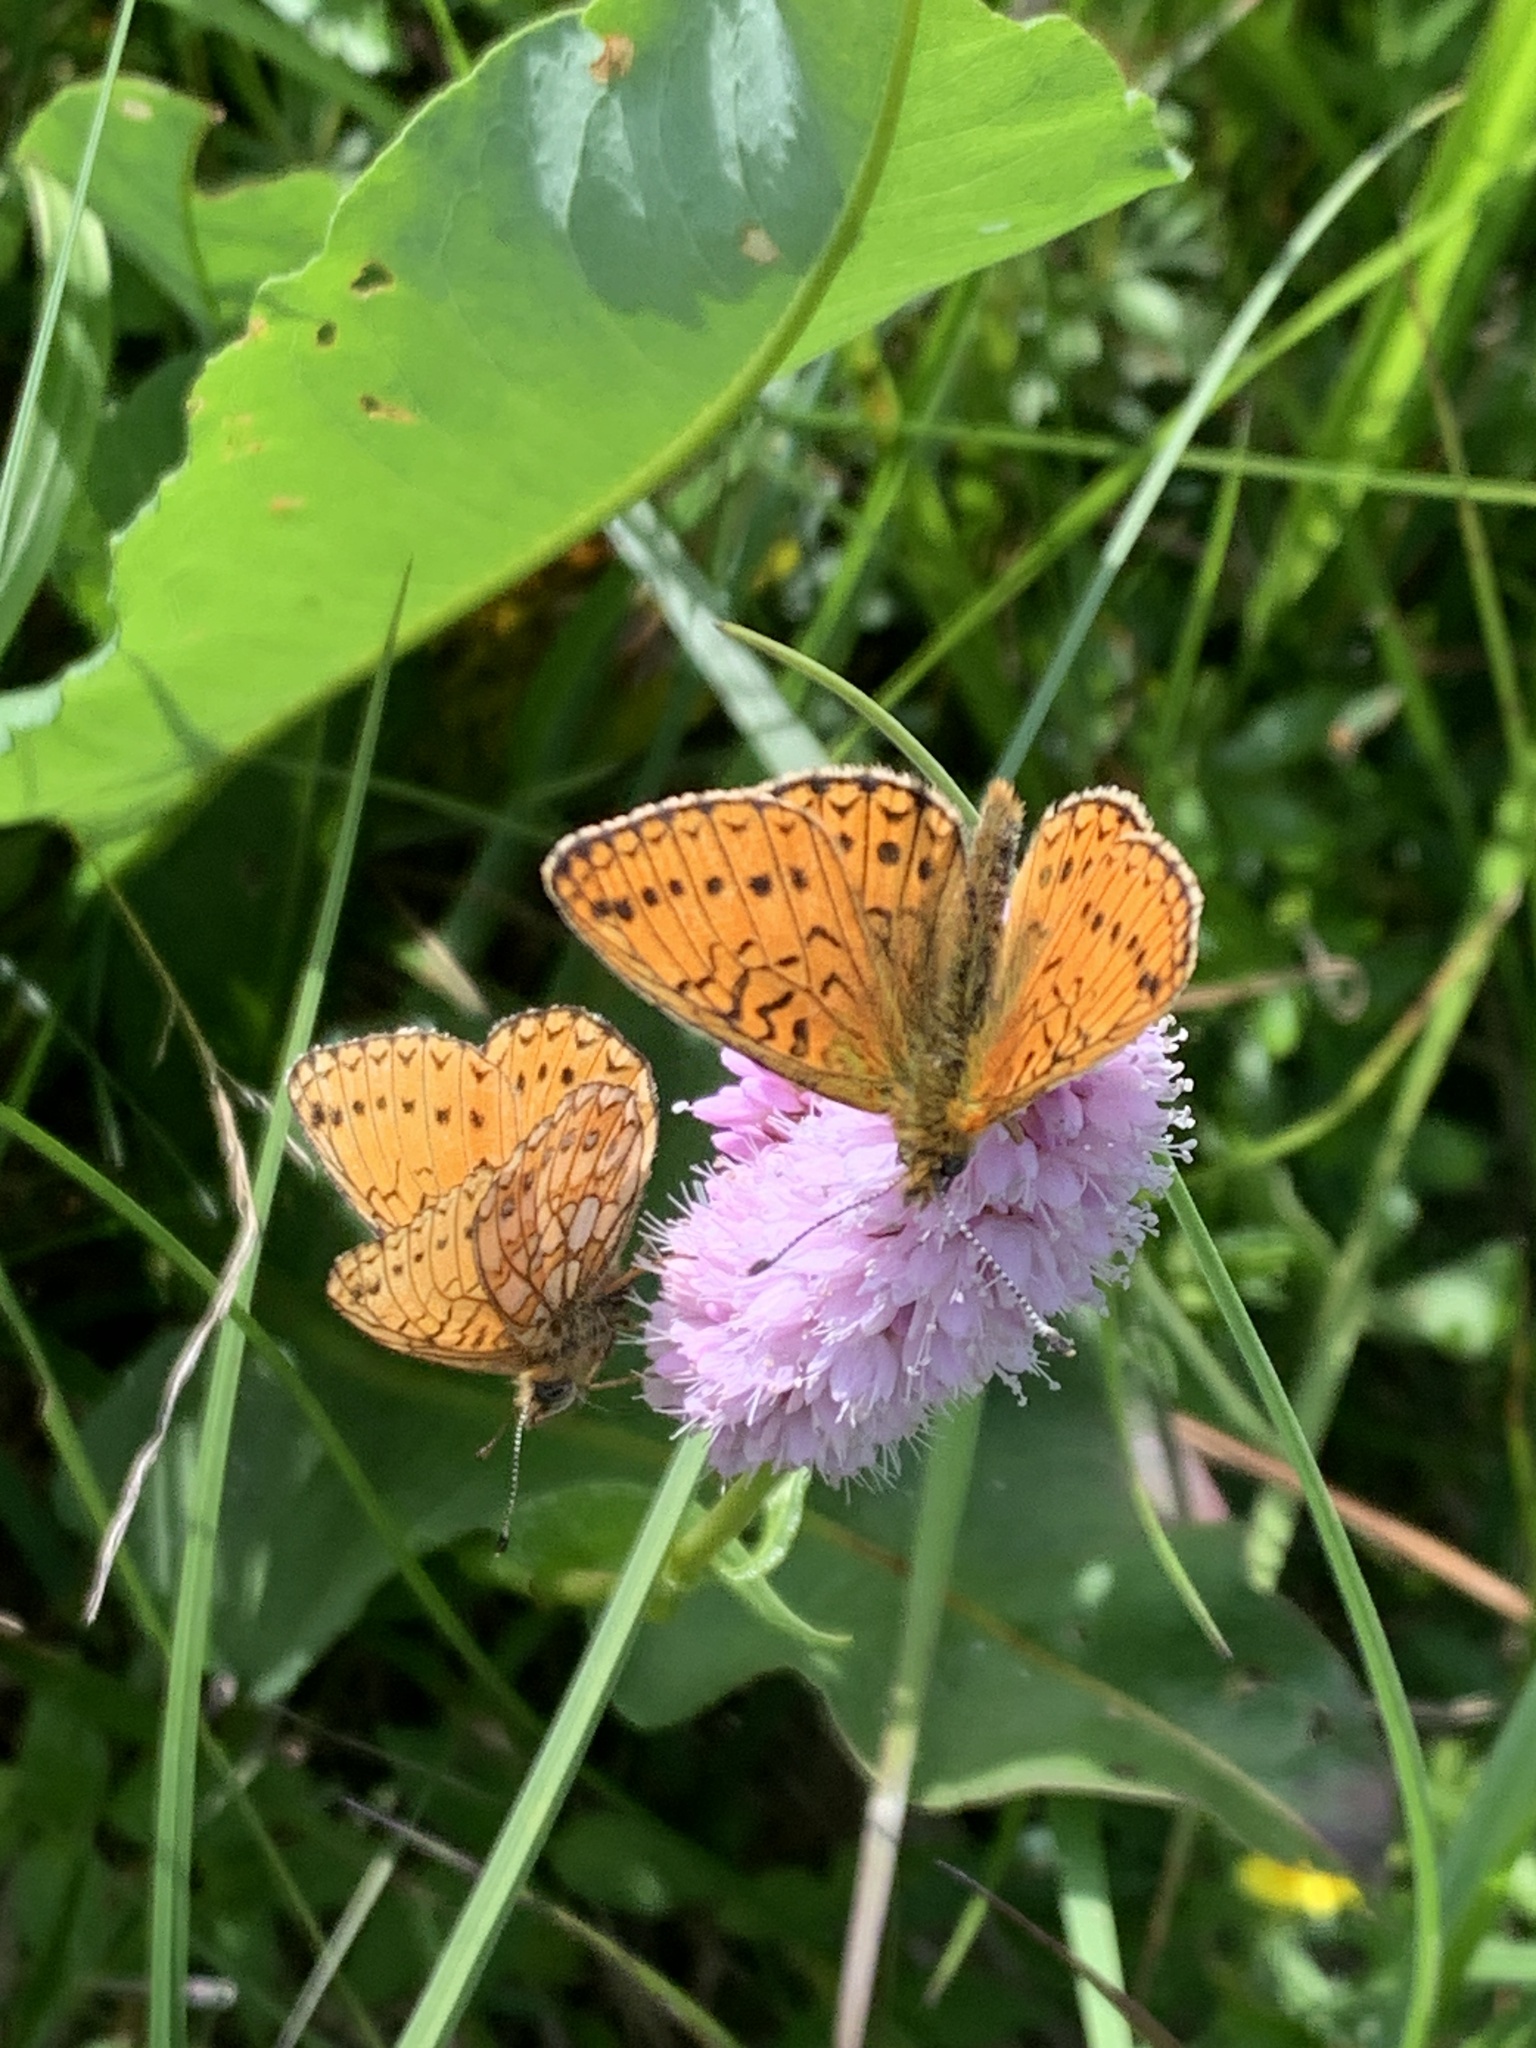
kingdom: Animalia
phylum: Arthropoda
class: Insecta
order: Lepidoptera
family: Nymphalidae
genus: Boloria
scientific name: Boloria eunomia
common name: Bog fritillary
